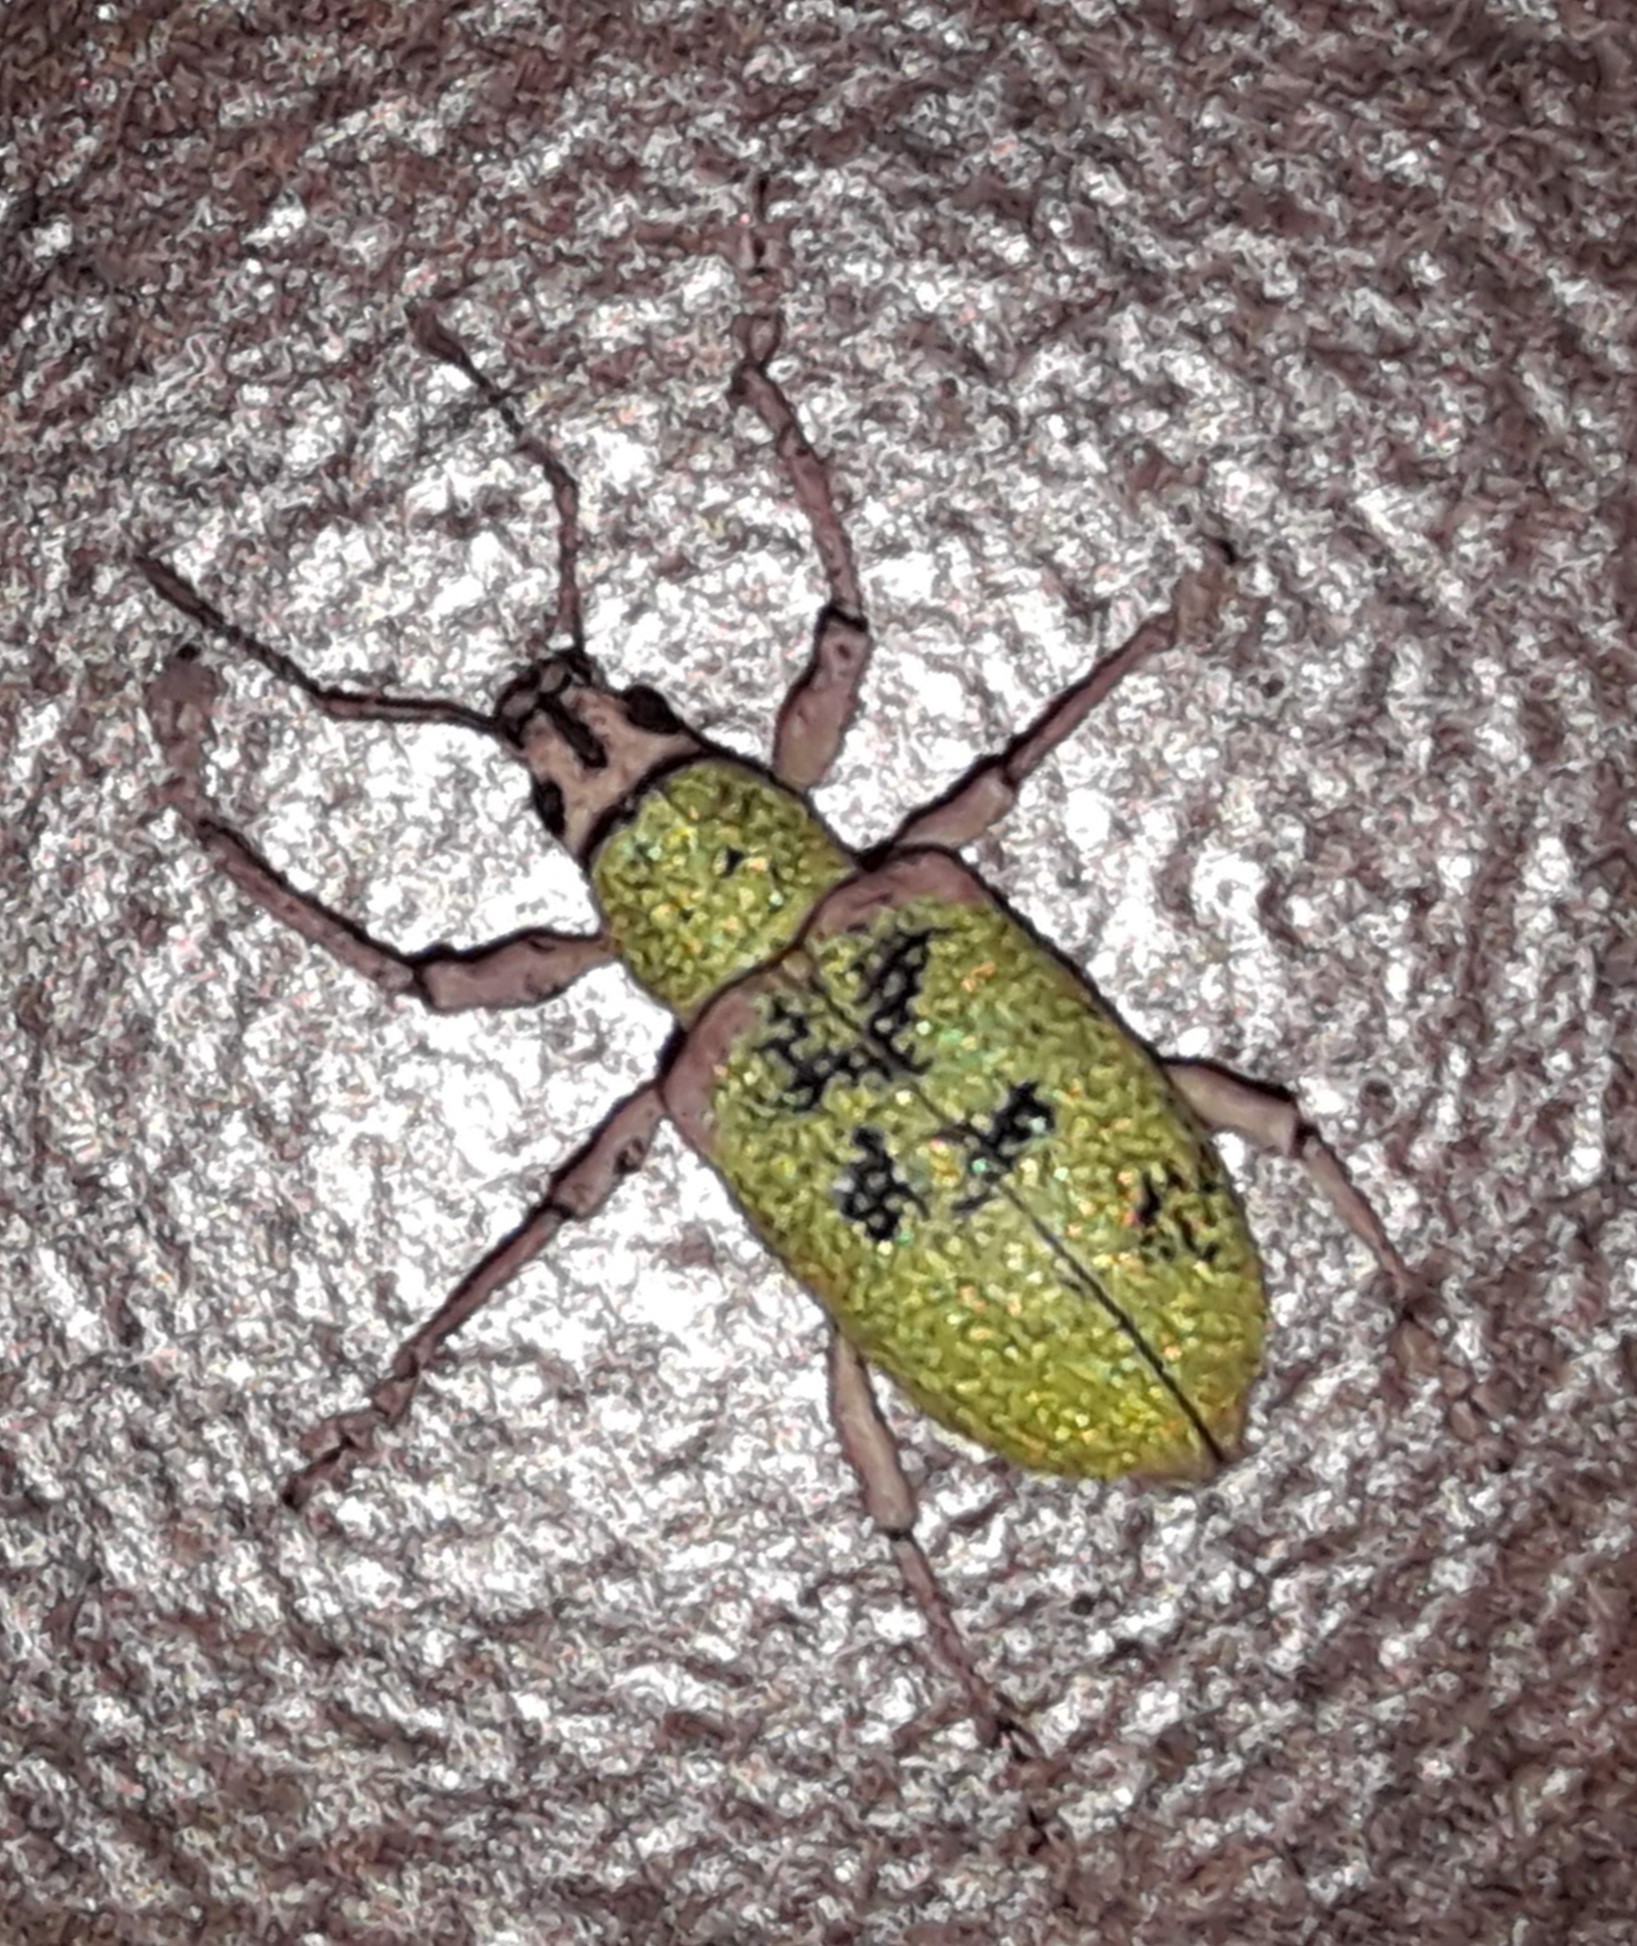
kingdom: Animalia
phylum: Arthropoda
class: Insecta
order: Coleoptera
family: Curculionidae
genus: Exophthalmus
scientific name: Exophthalmus carneipes
